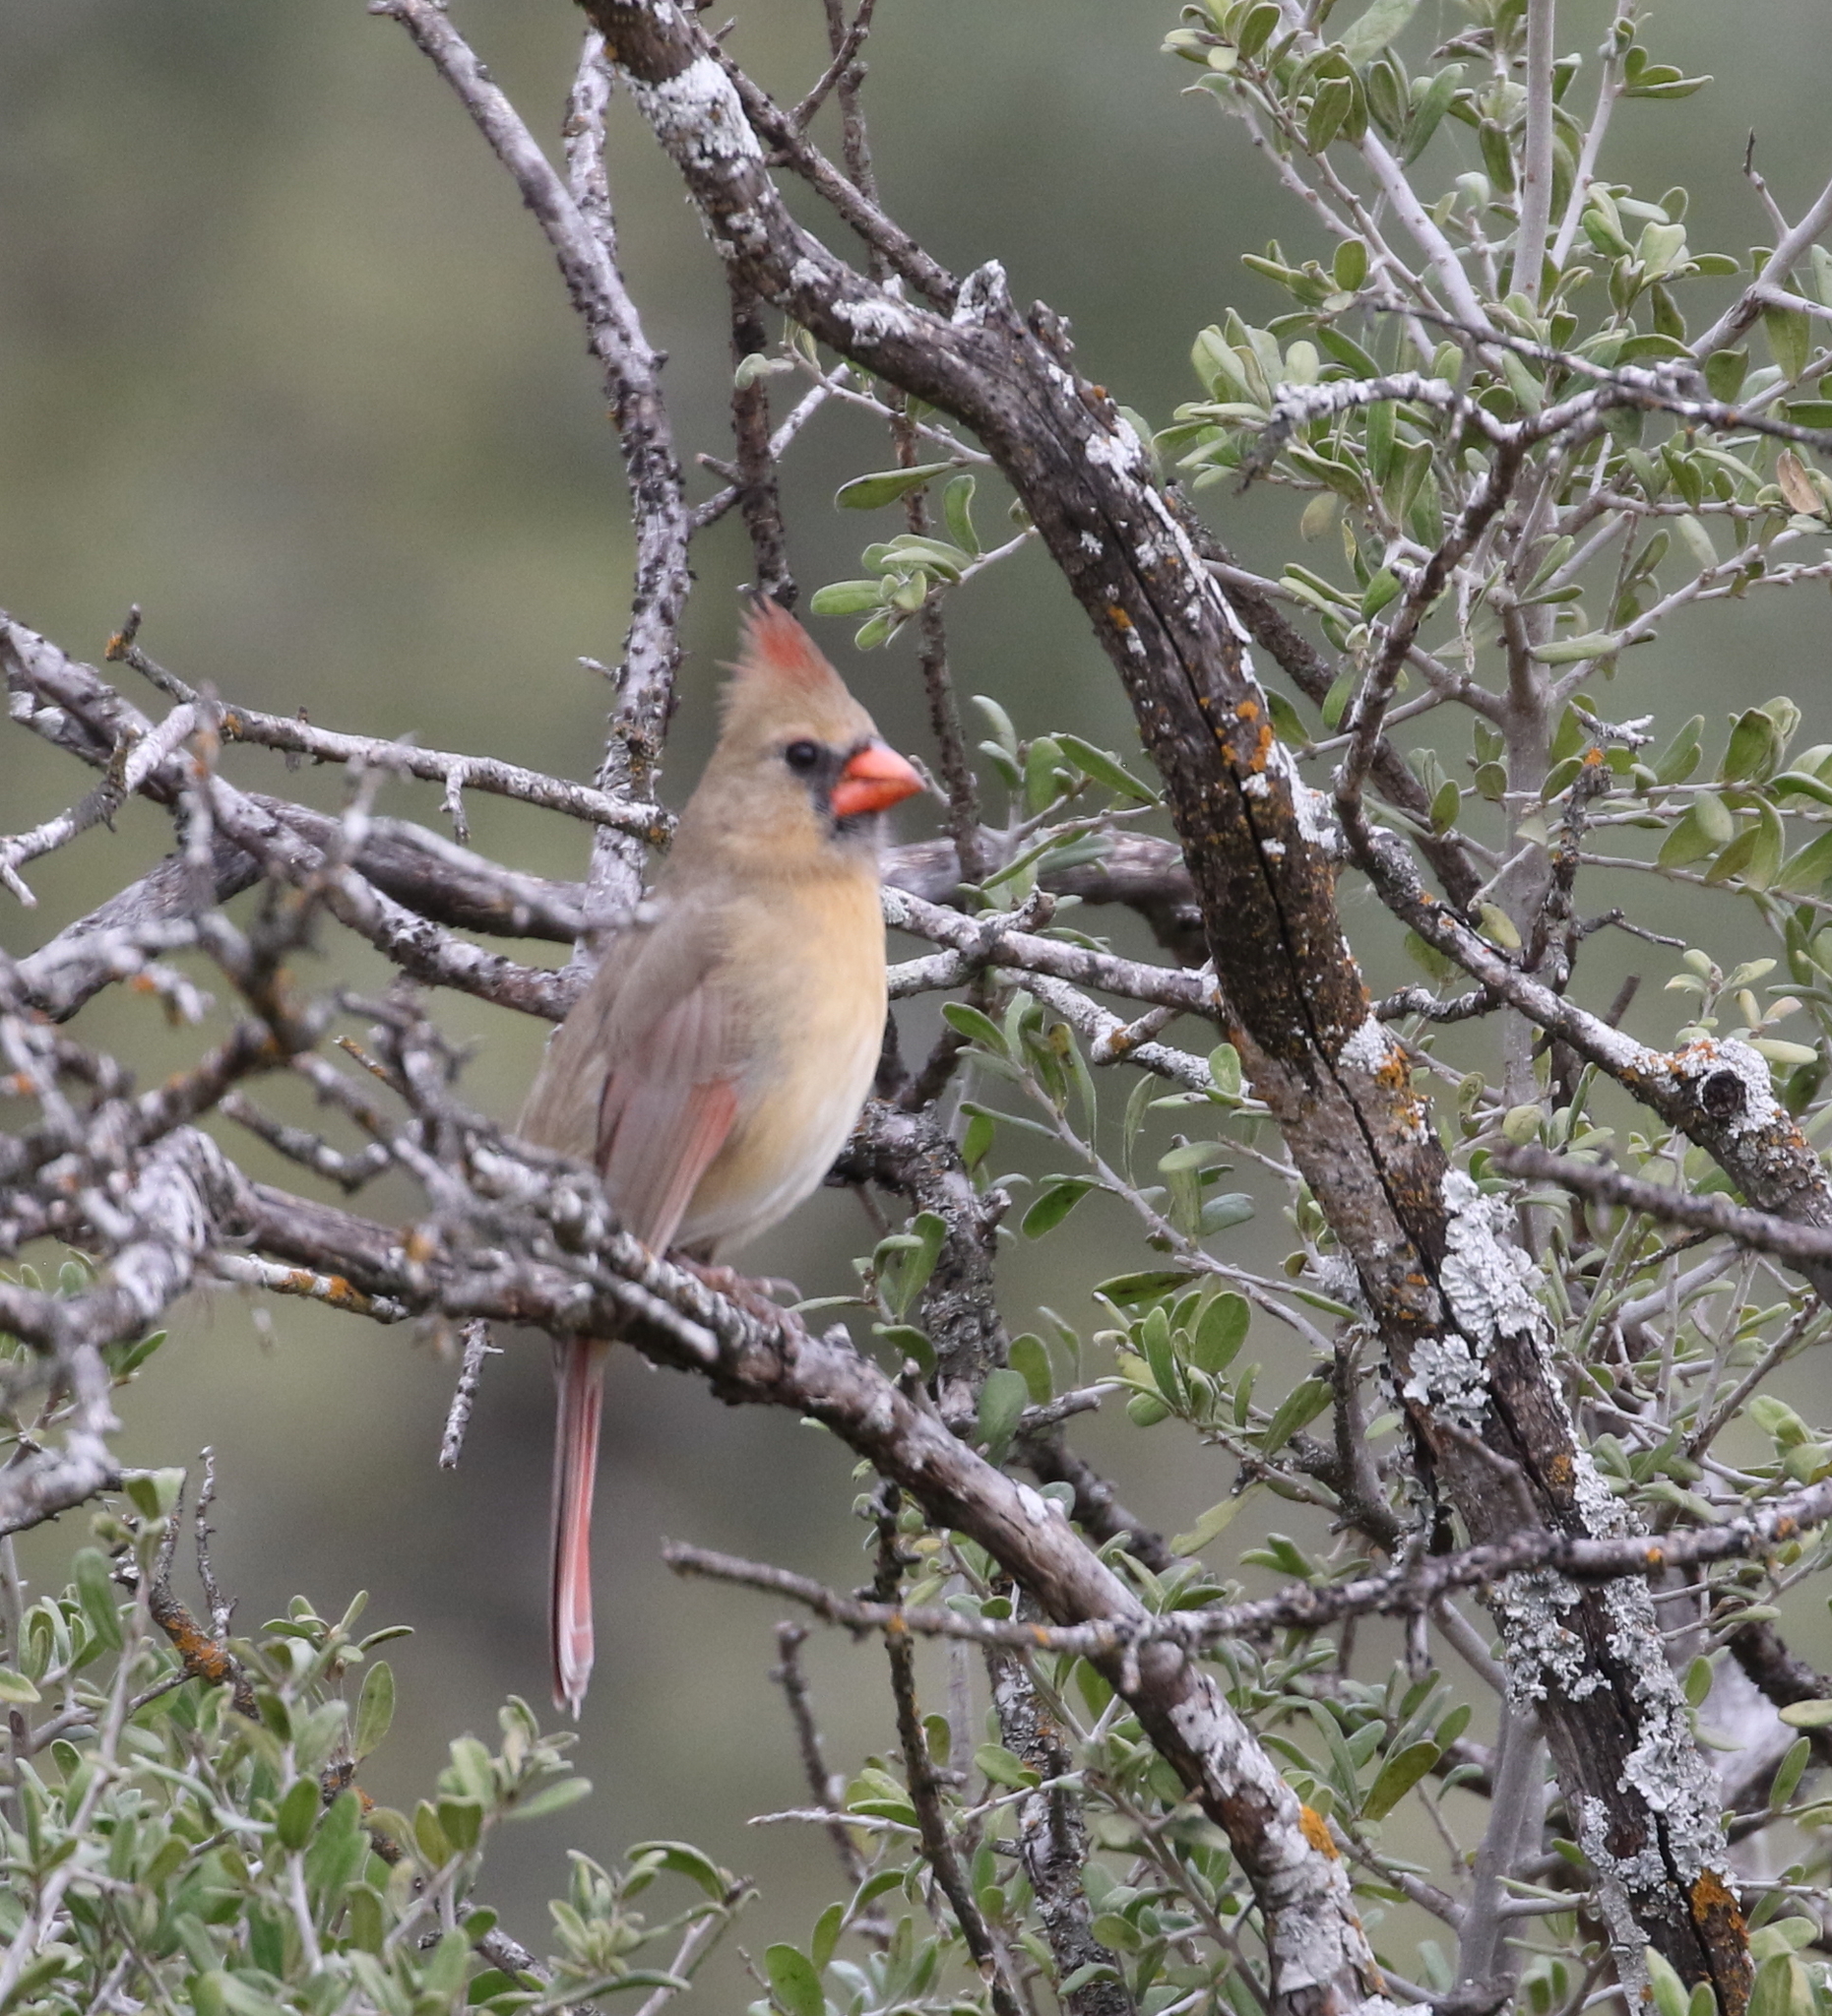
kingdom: Animalia
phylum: Chordata
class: Aves
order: Passeriformes
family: Cardinalidae
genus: Cardinalis
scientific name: Cardinalis cardinalis
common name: Northern cardinal
